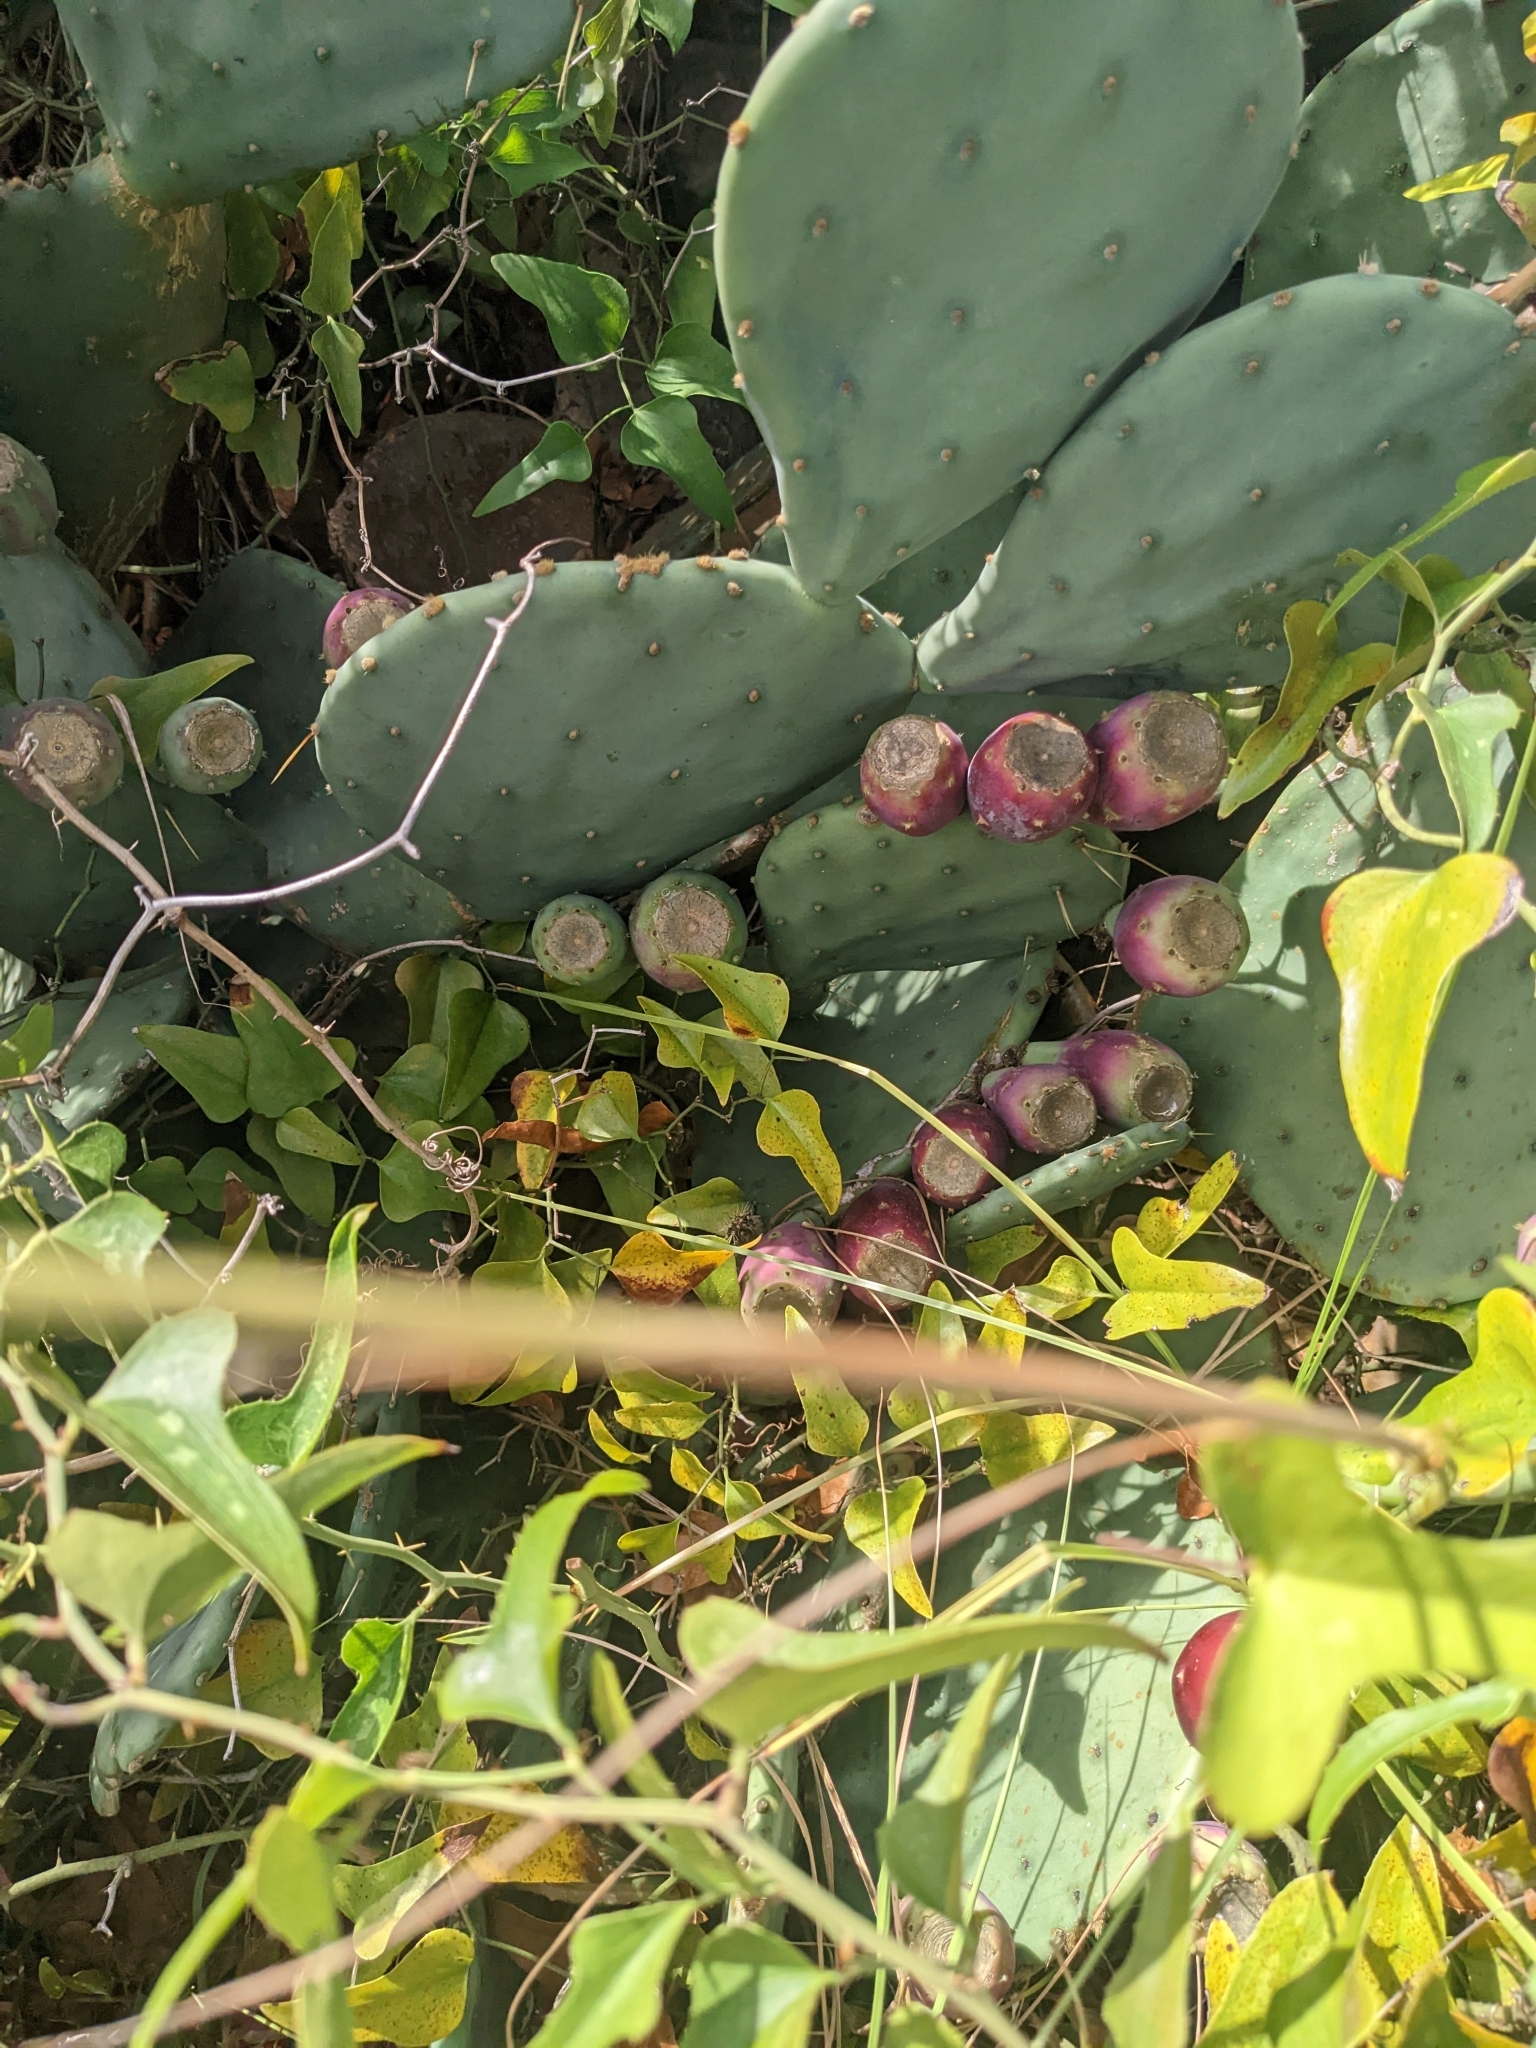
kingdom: Plantae
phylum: Tracheophyta
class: Magnoliopsida
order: Caryophyllales
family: Cactaceae
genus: Opuntia
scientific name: Opuntia tunoidea
